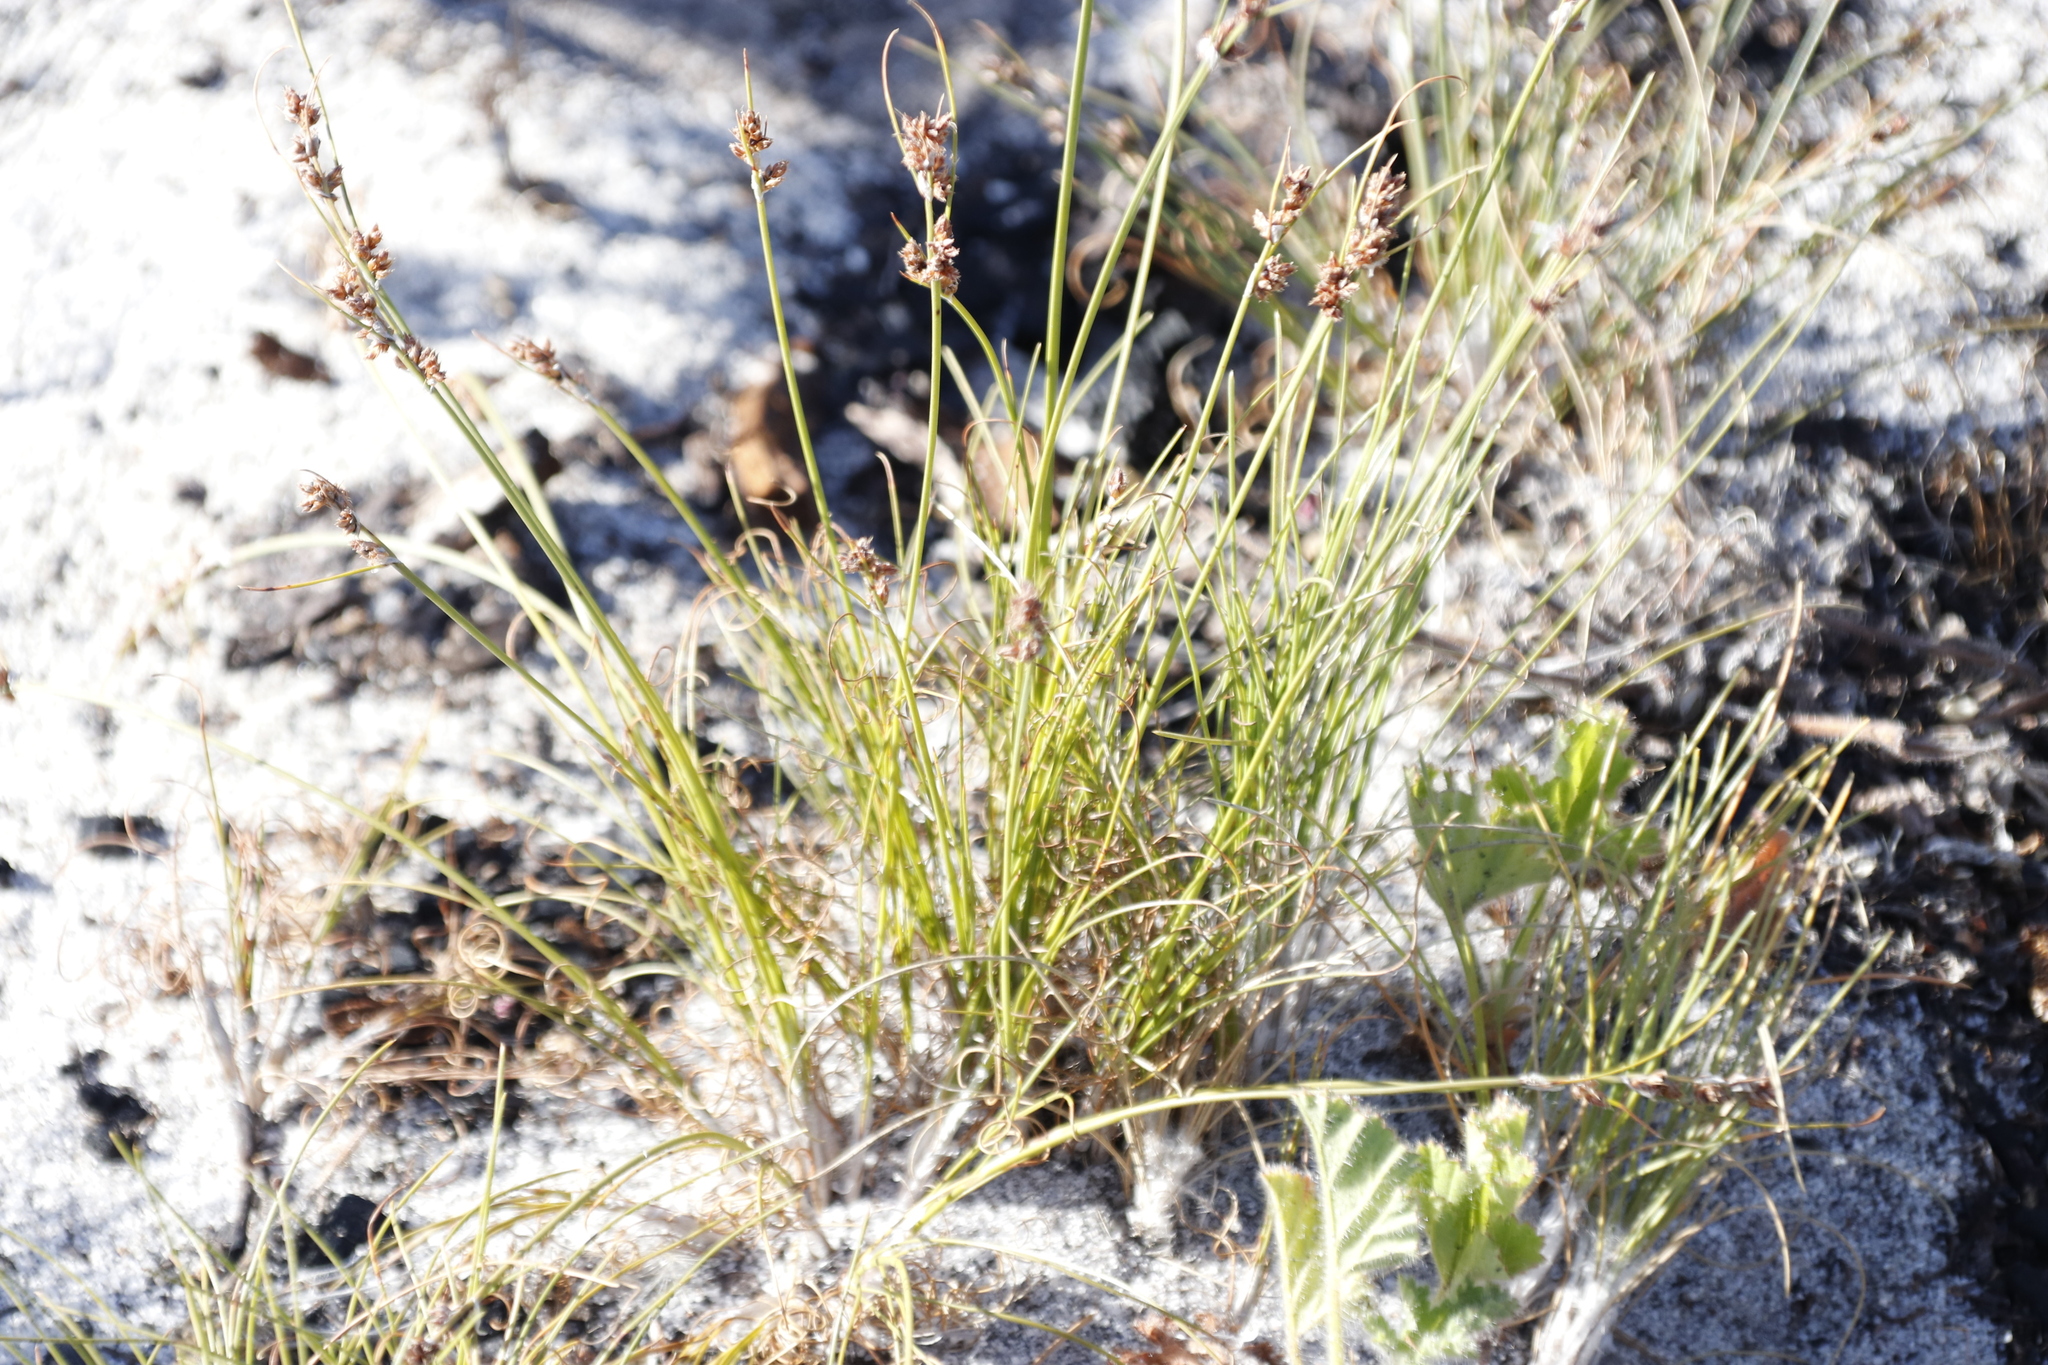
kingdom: Plantae
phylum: Tracheophyta
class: Liliopsida
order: Poales
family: Cyperaceae
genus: Ficinia
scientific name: Ficinia bulbosa
